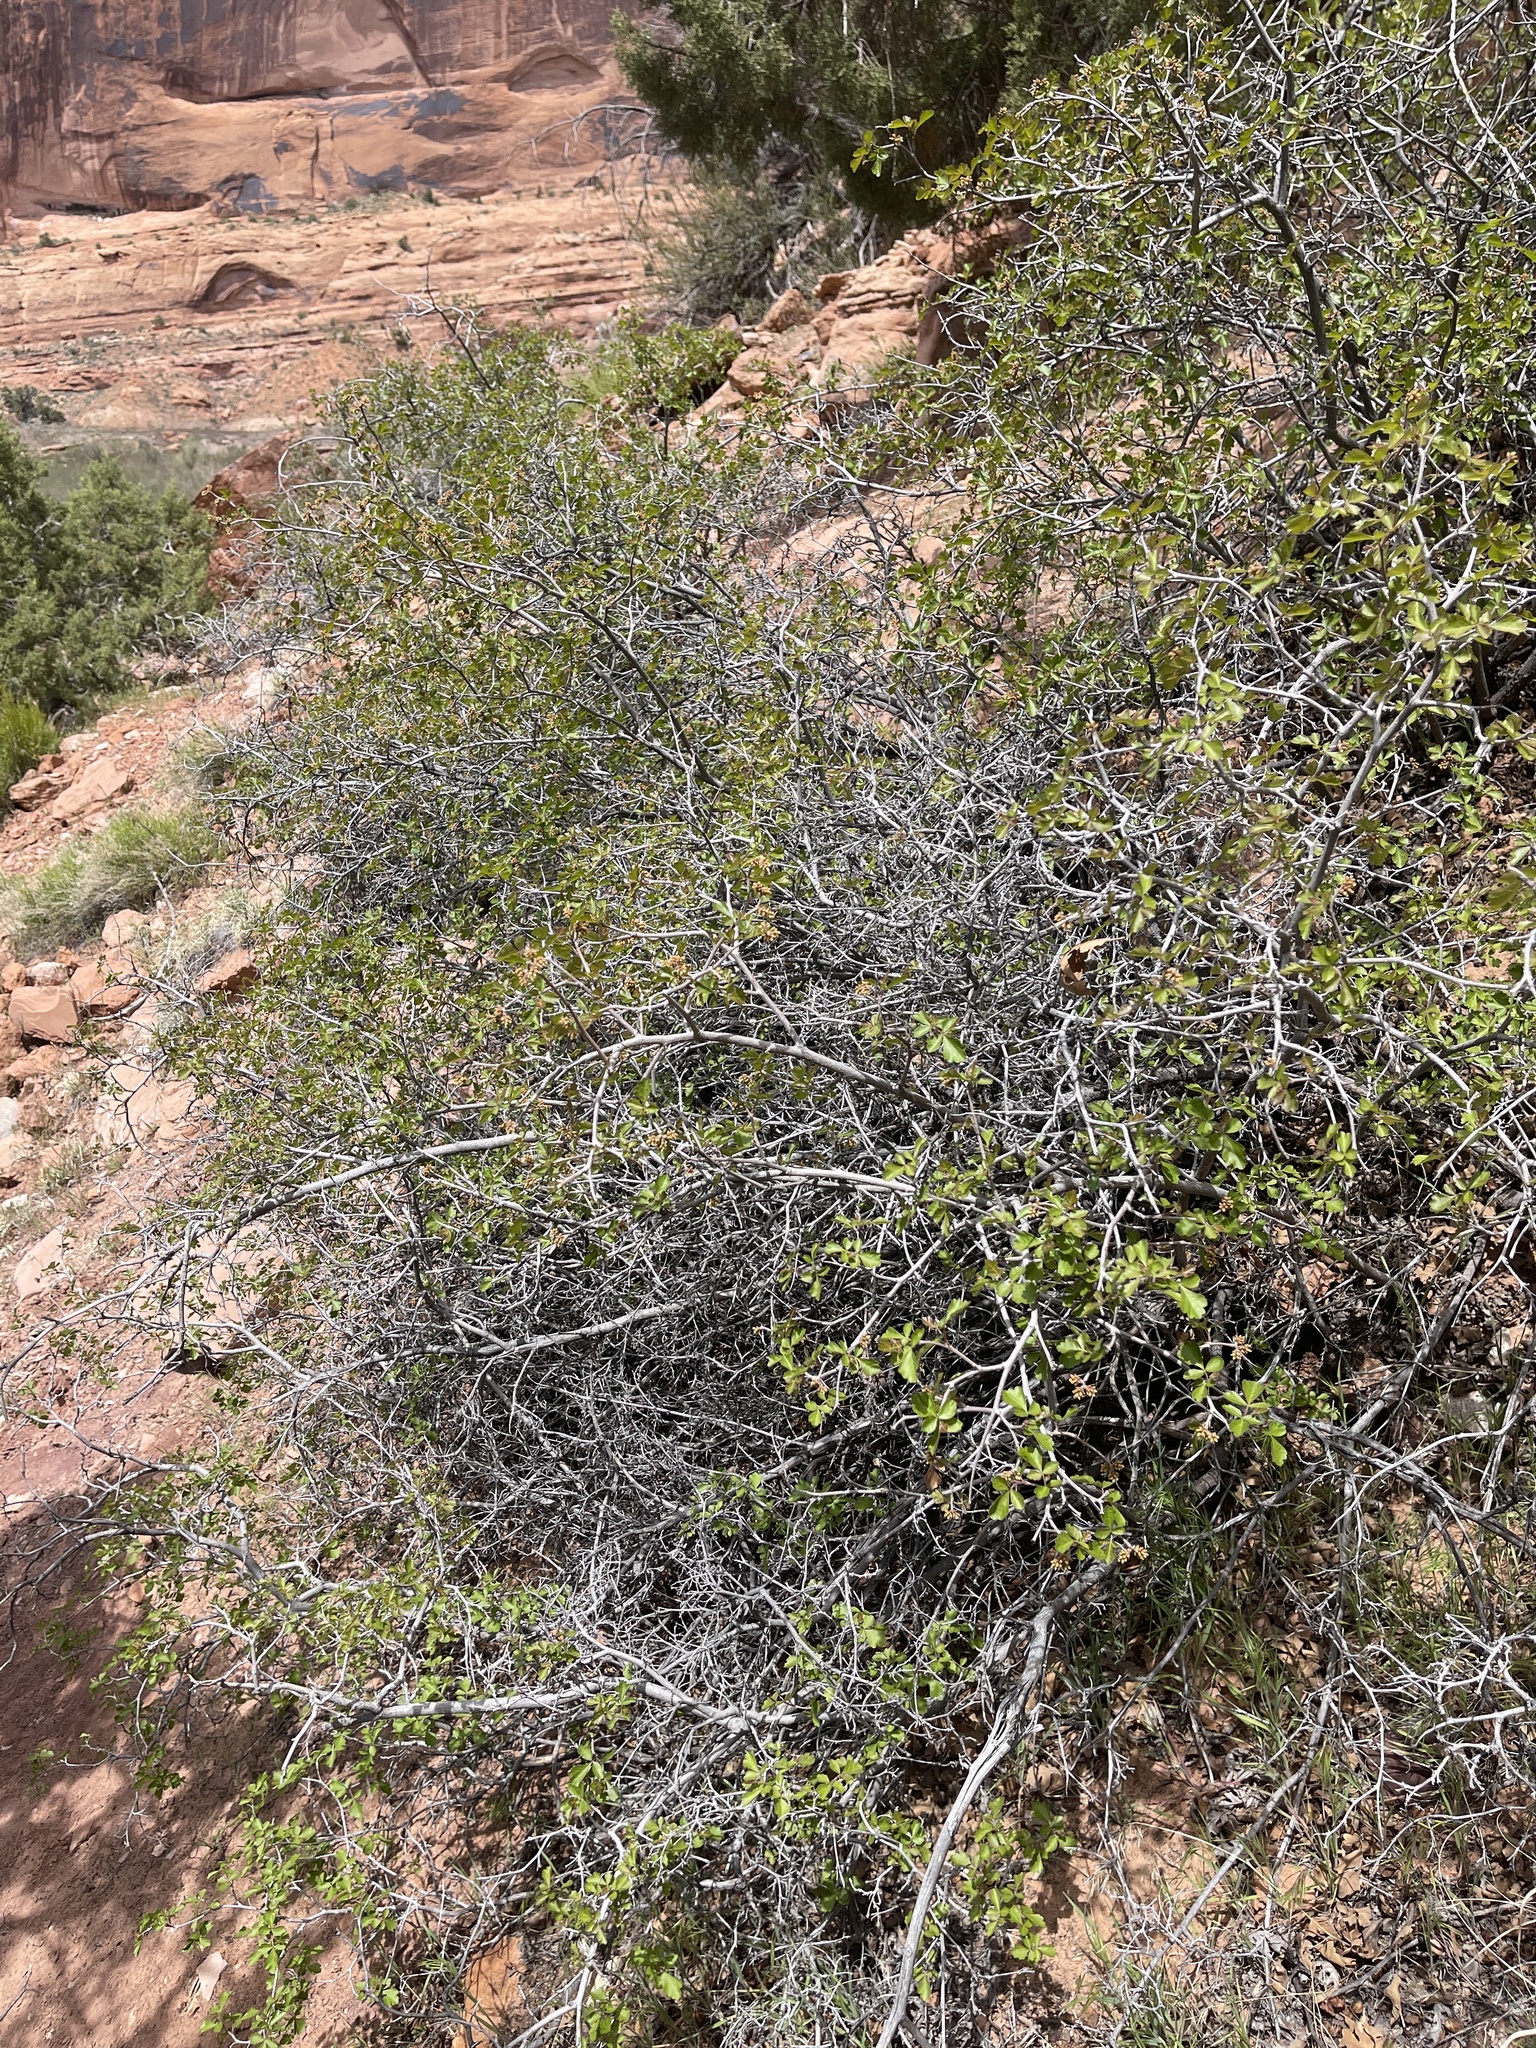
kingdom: Plantae
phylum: Tracheophyta
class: Magnoliopsida
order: Sapindales
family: Anacardiaceae
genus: Rhus
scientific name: Rhus trilobata
